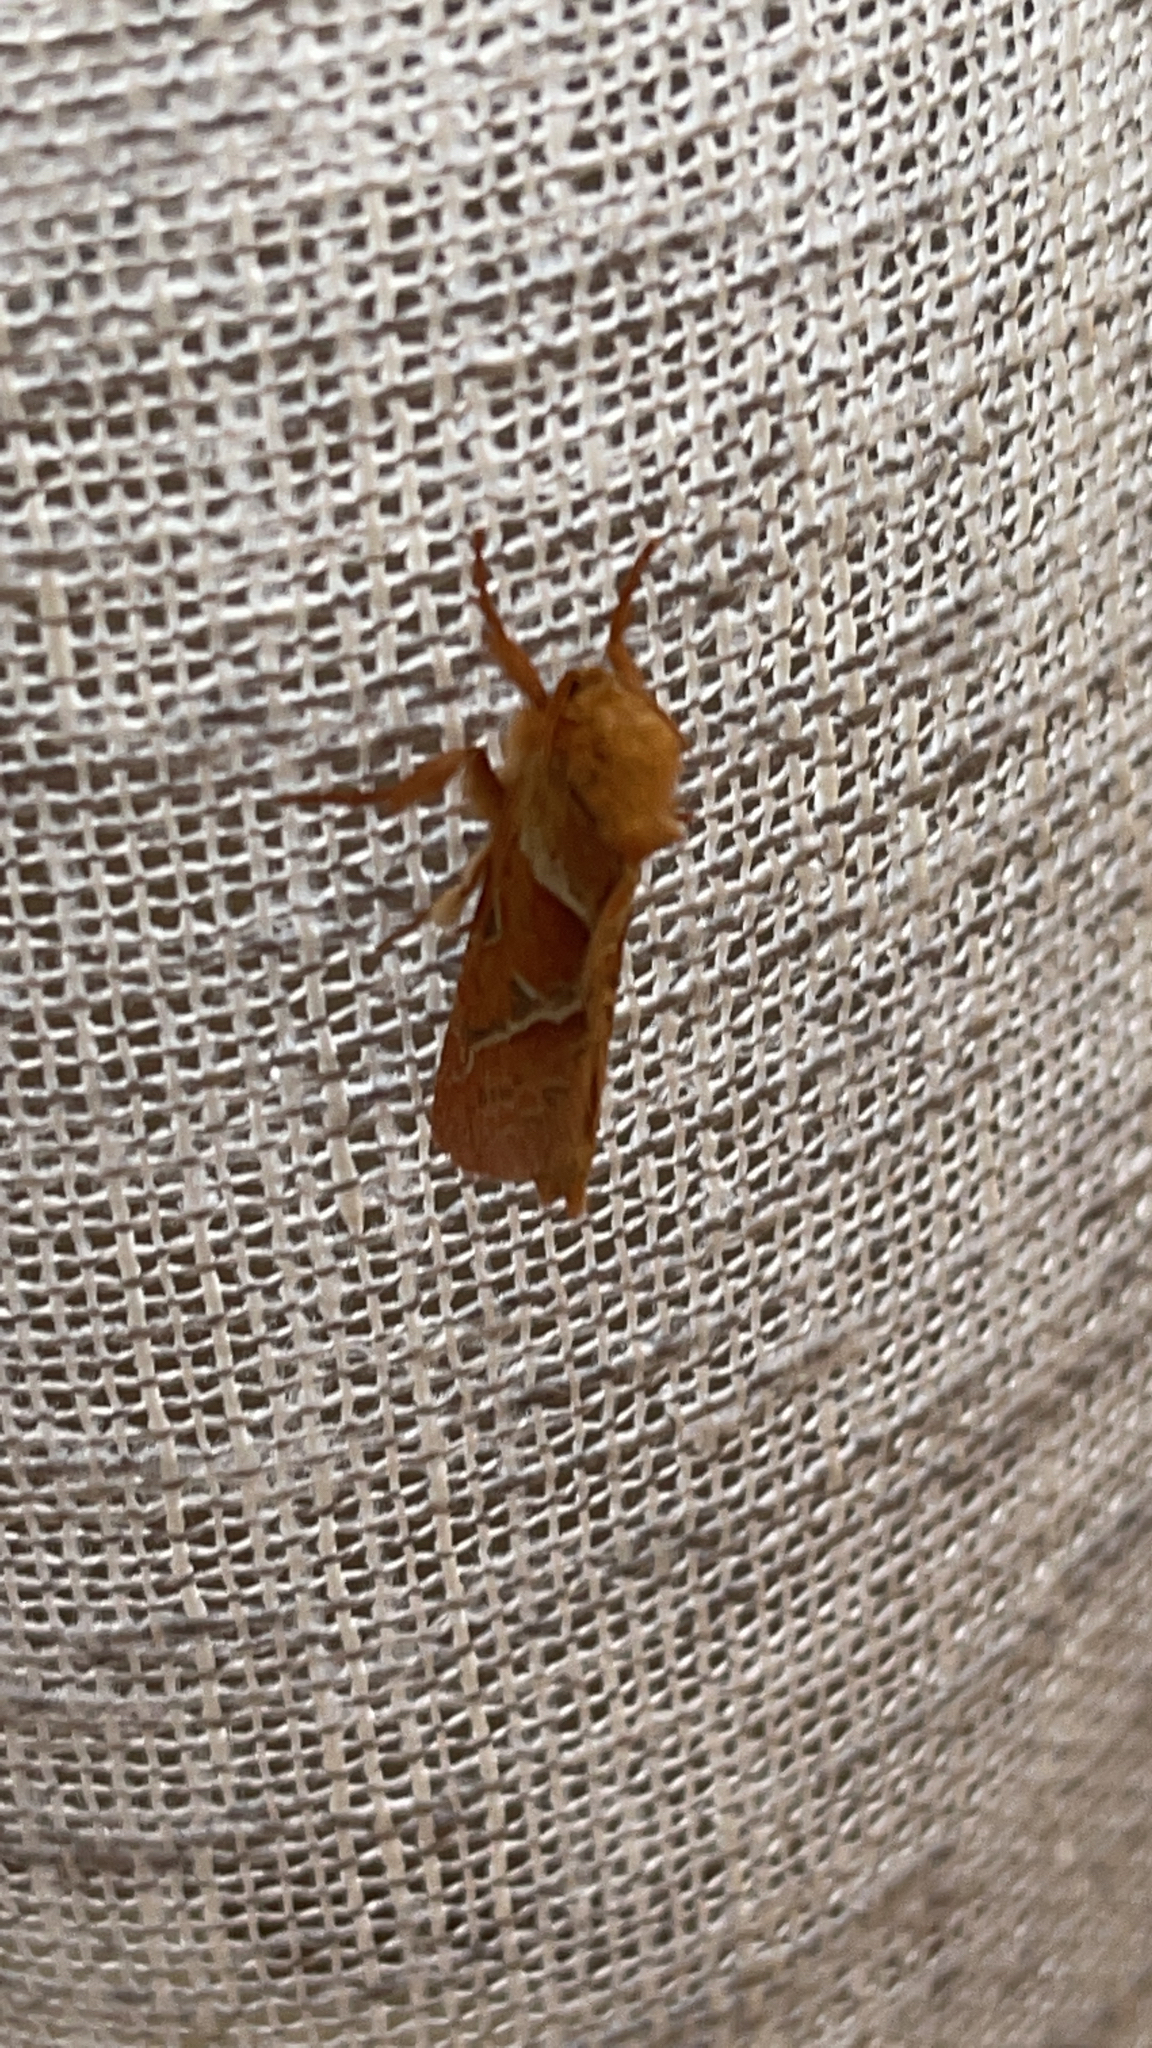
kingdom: Animalia
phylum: Arthropoda
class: Insecta
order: Lepidoptera
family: Hepialidae
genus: Triodia
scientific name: Triodia sylvina
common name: Orange swift
